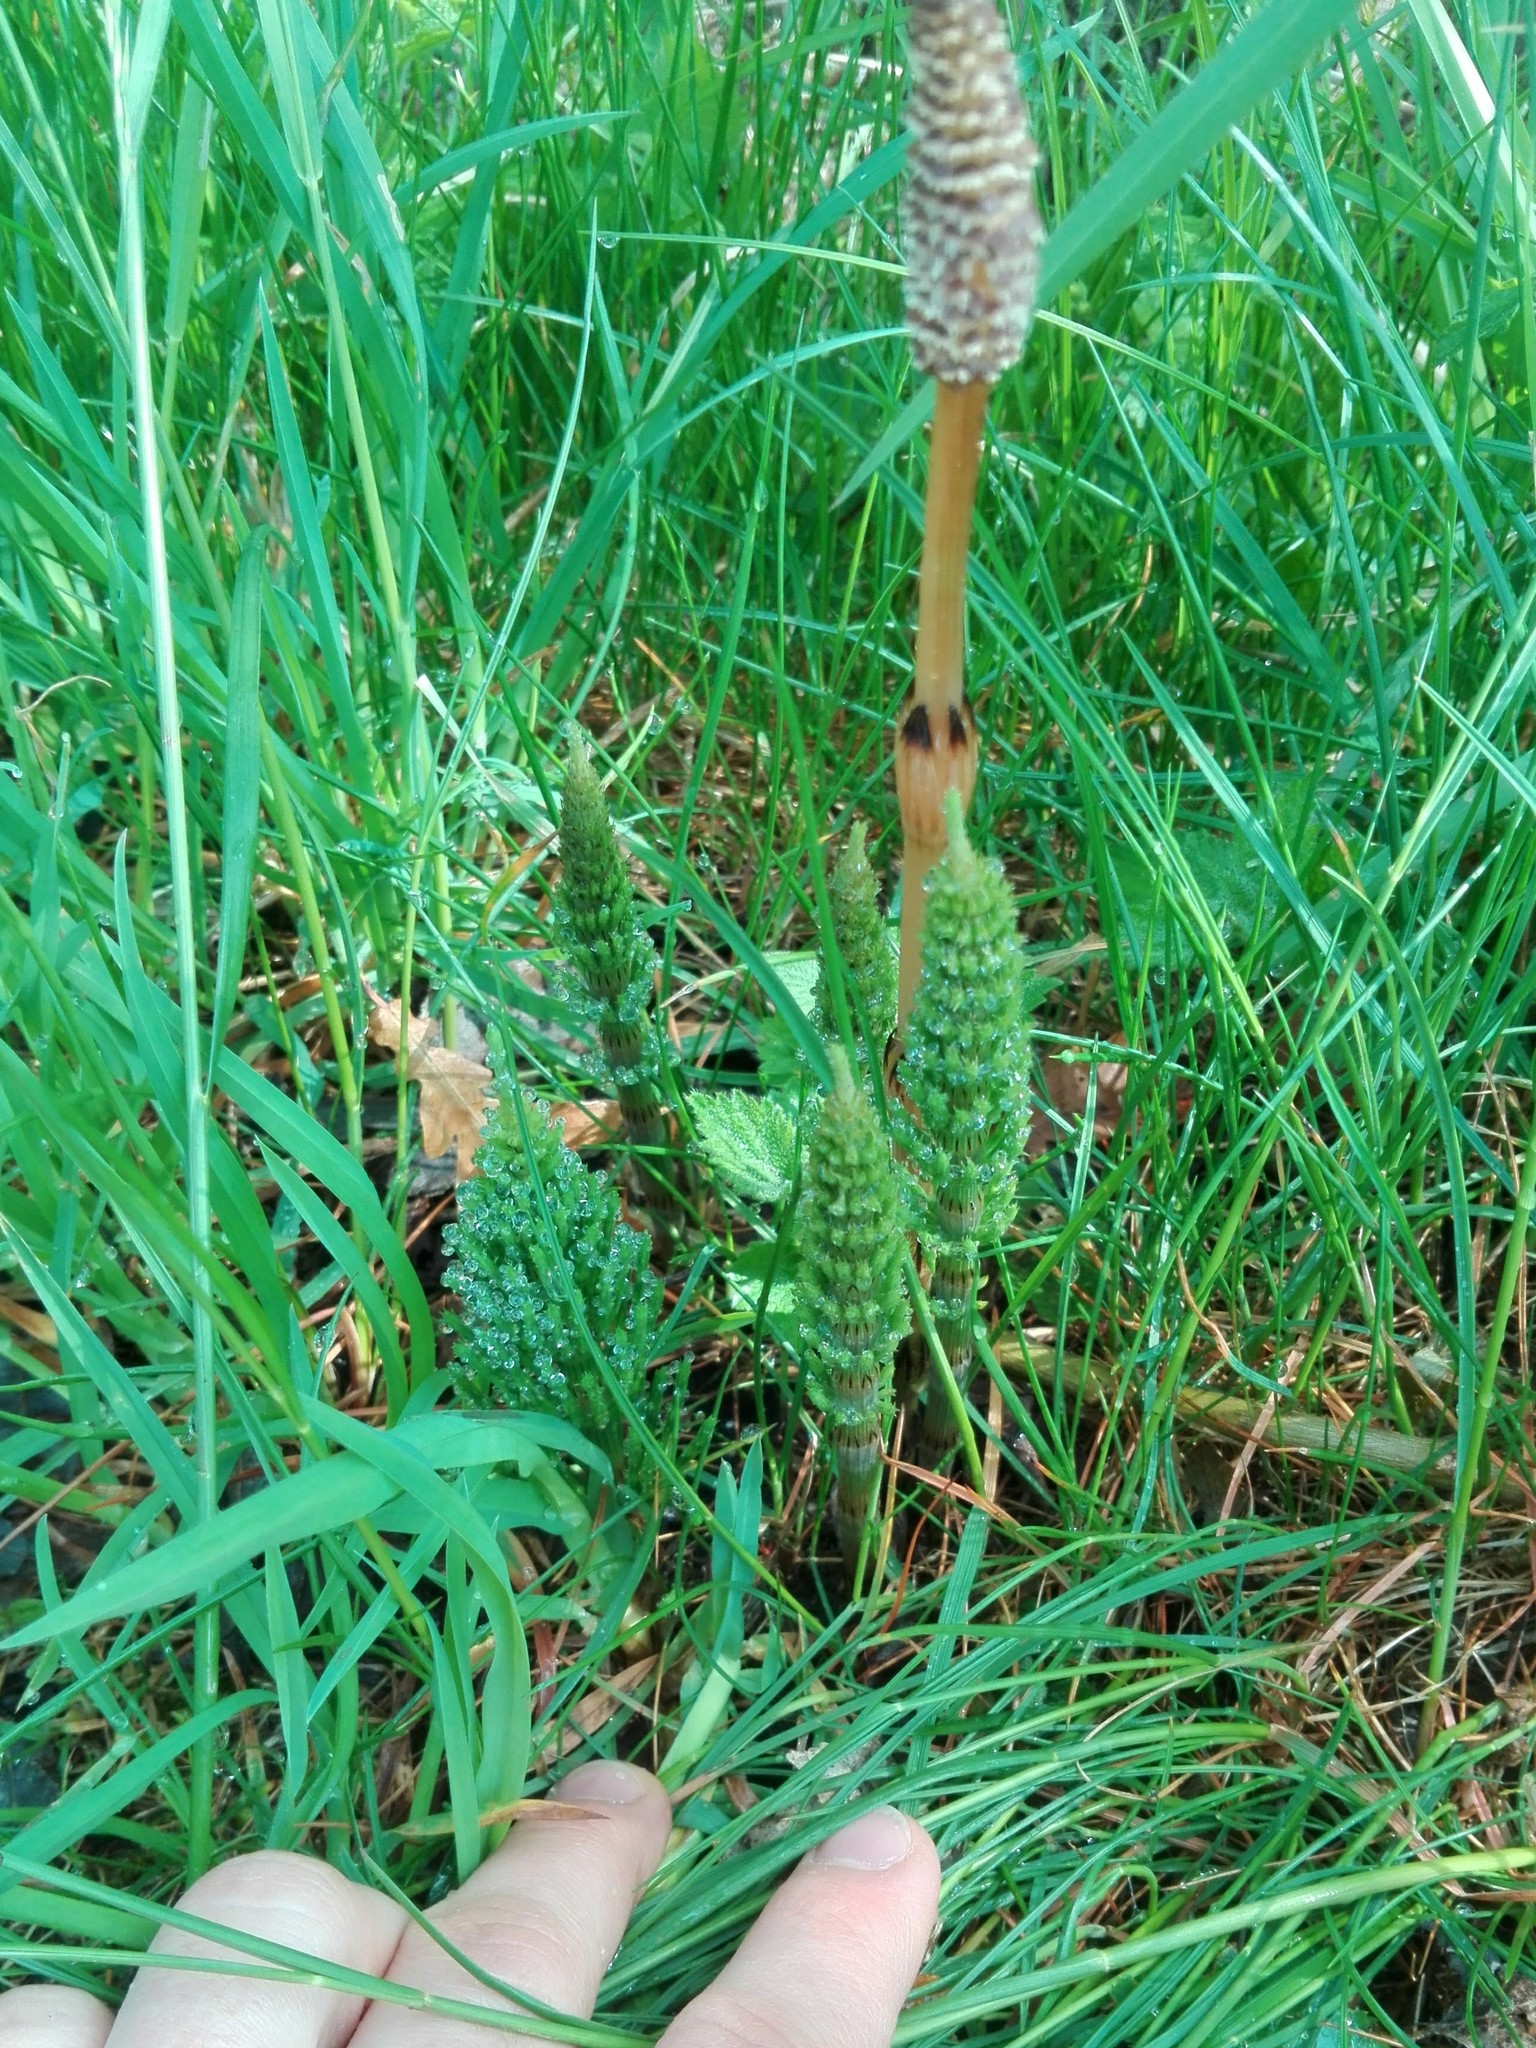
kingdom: Plantae
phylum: Tracheophyta
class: Polypodiopsida
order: Equisetales
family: Equisetaceae
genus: Equisetum
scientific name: Equisetum arvense
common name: Field horsetail
